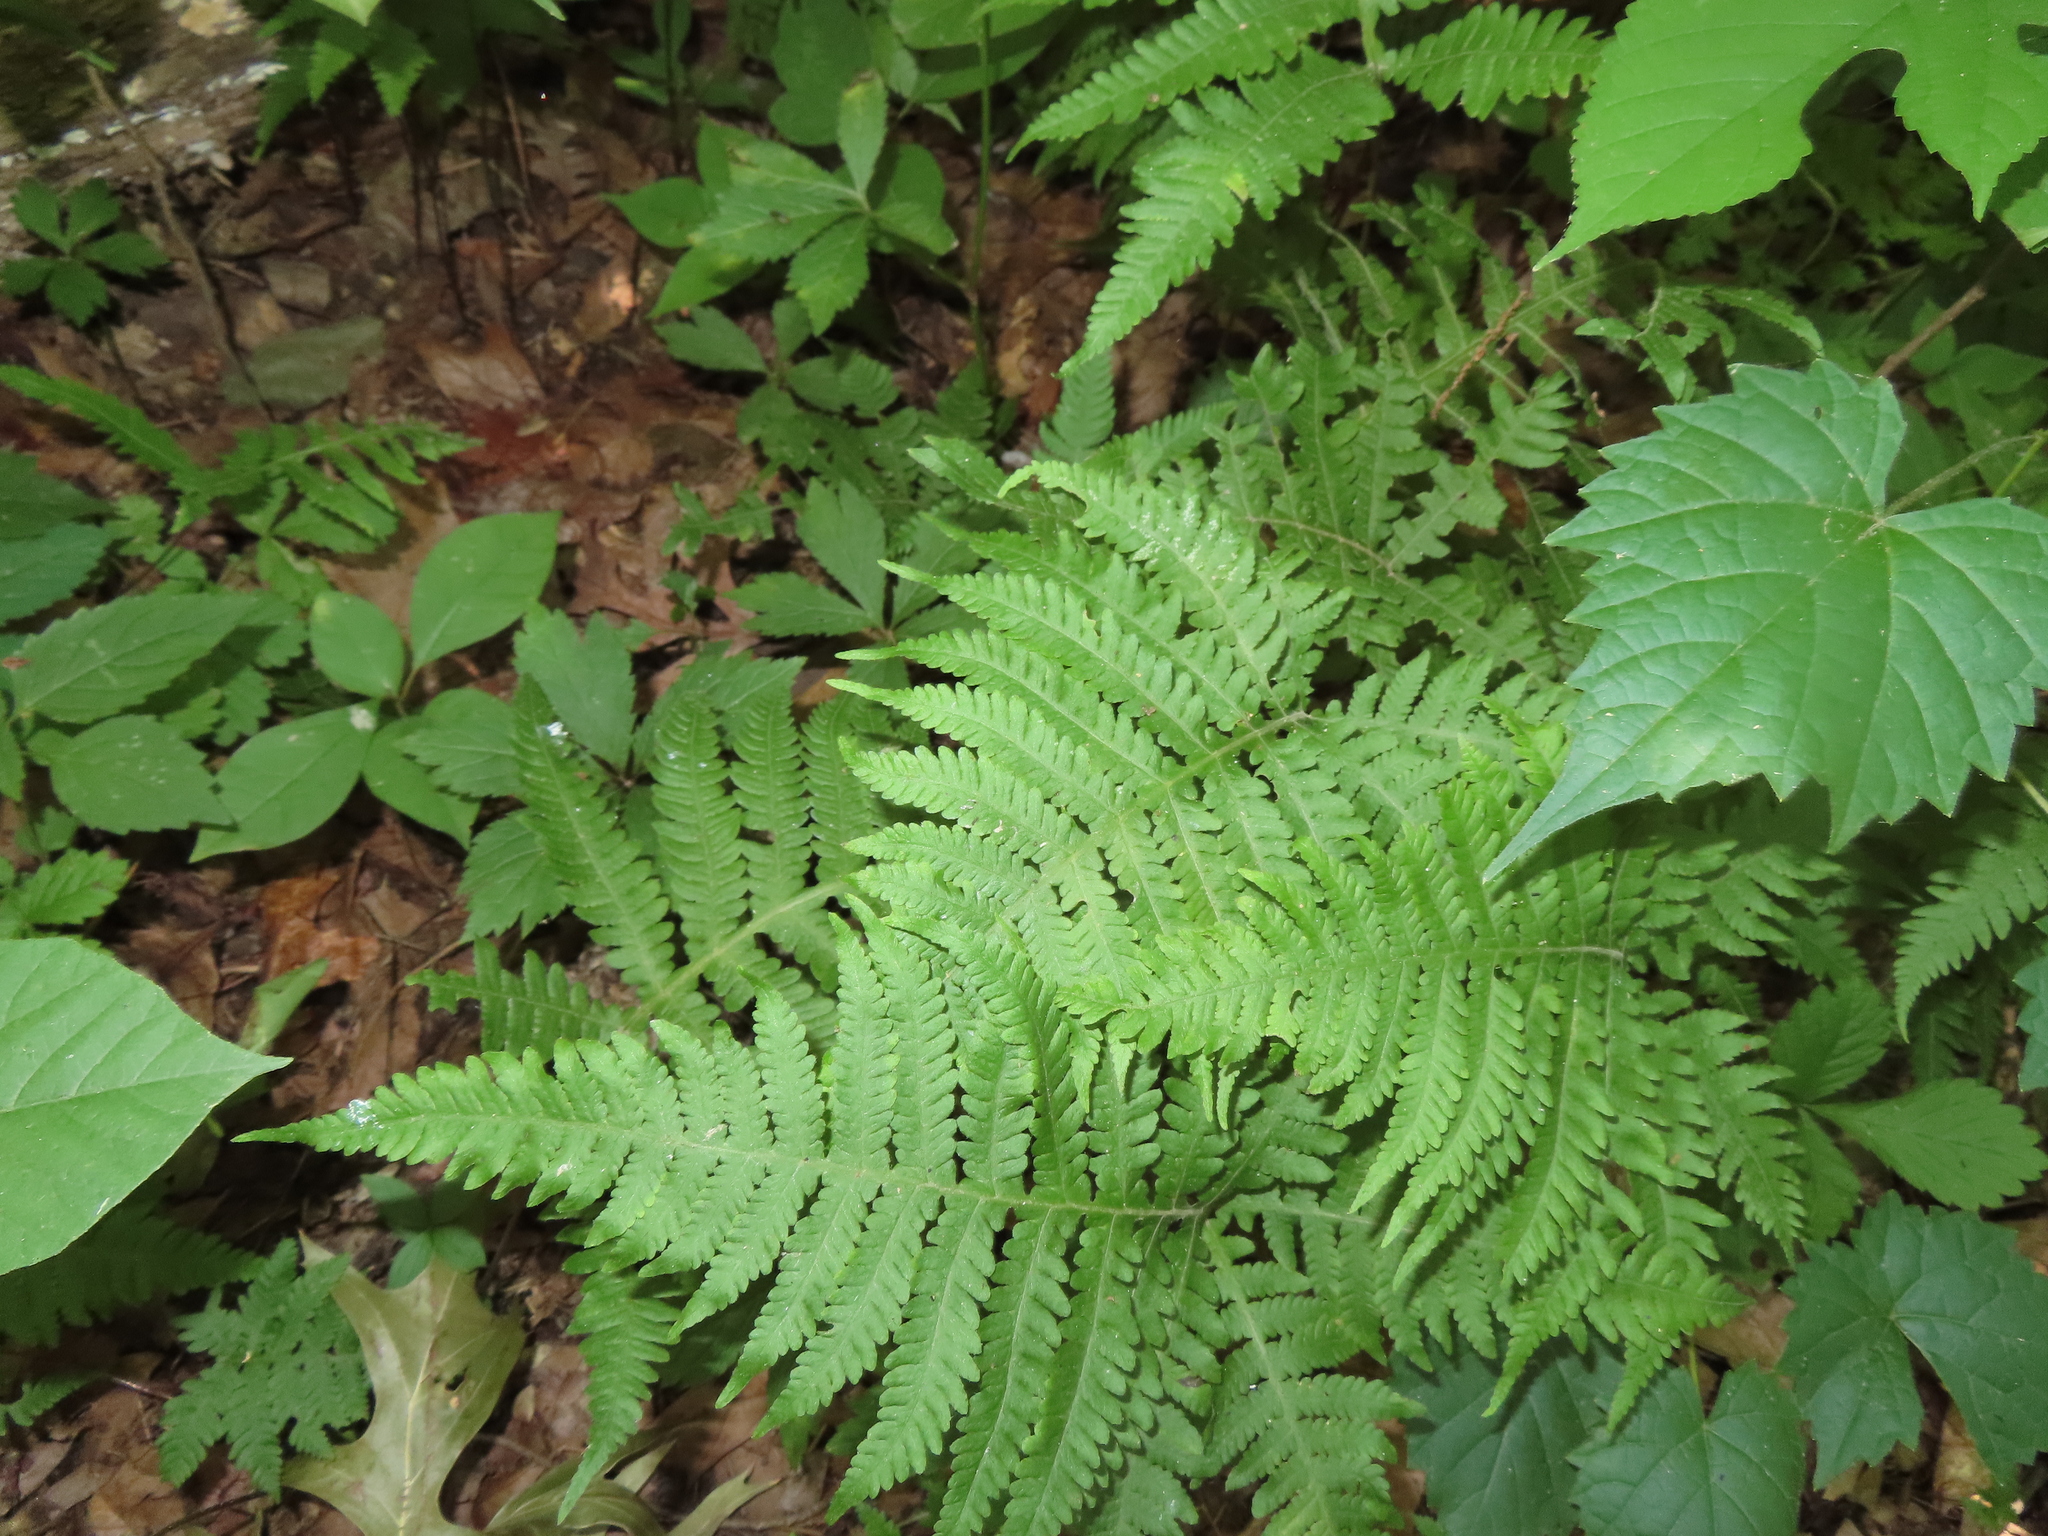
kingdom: Plantae
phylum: Tracheophyta
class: Polypodiopsida
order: Polypodiales
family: Thelypteridaceae
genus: Phegopteris
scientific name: Phegopteris hexagonoptera
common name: Broad beech fern
